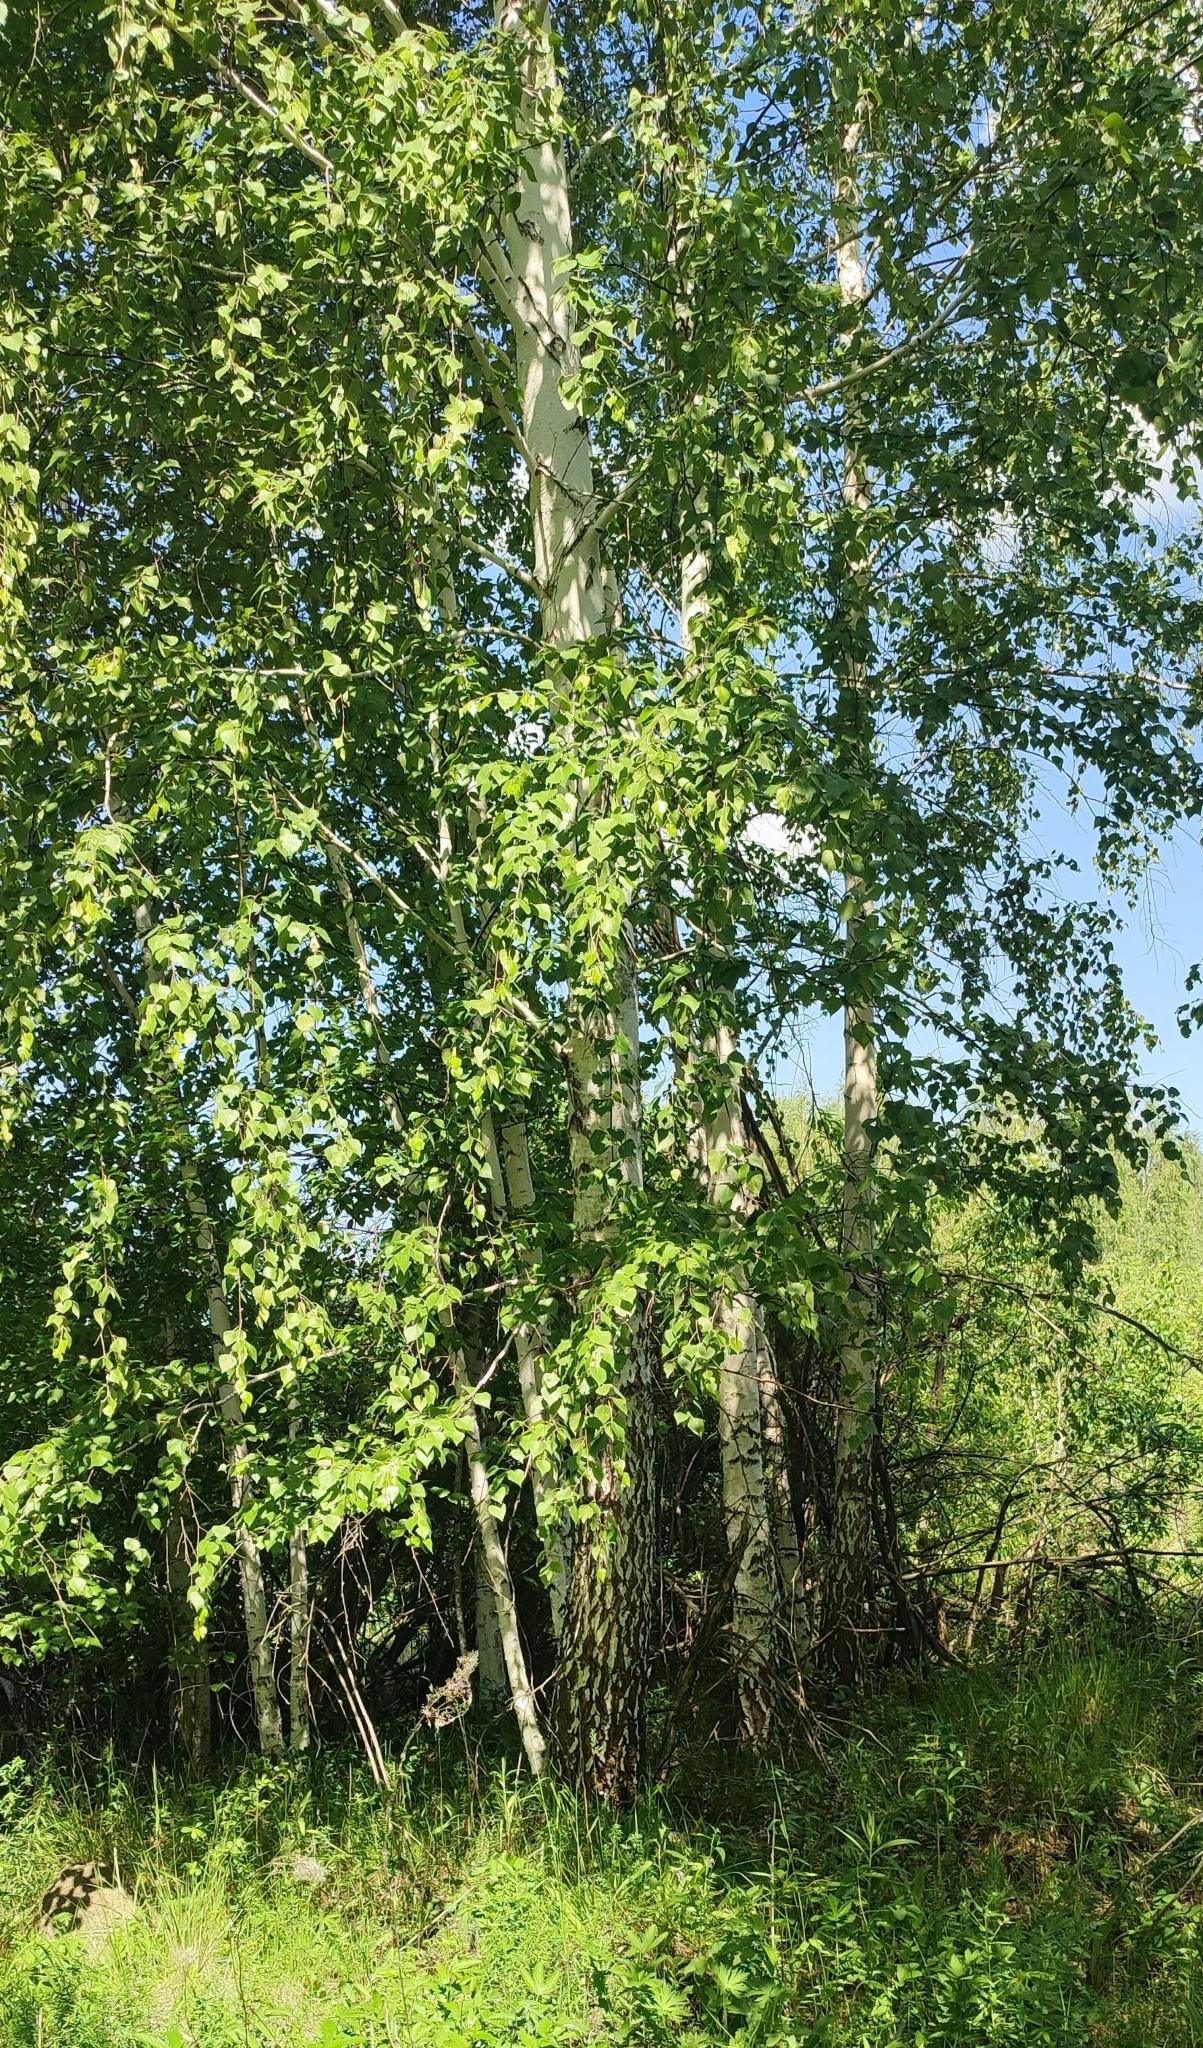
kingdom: Plantae
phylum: Tracheophyta
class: Magnoliopsida
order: Fagales
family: Betulaceae
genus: Betula
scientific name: Betula pendula
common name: Silver birch
